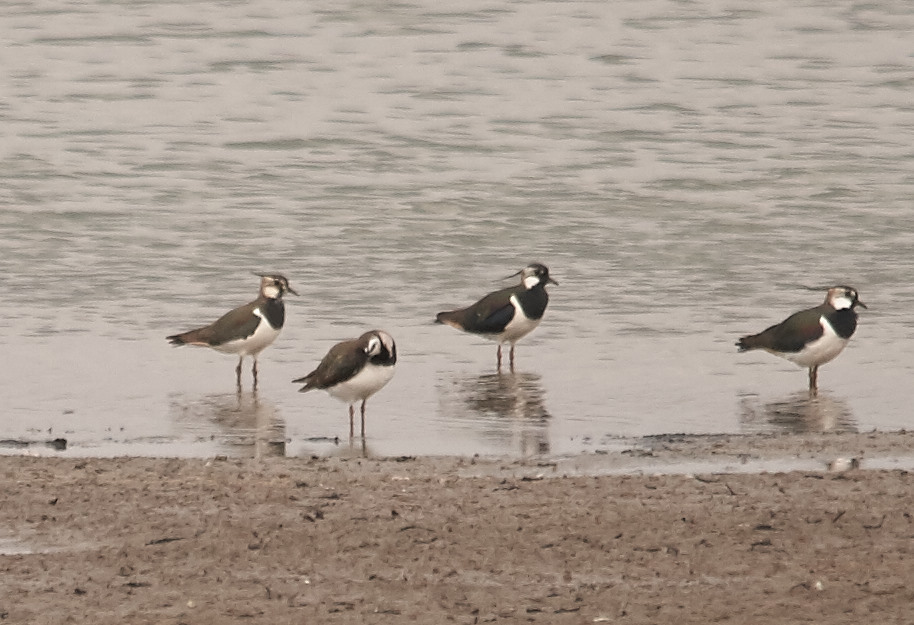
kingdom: Animalia
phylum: Chordata
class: Aves
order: Charadriiformes
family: Charadriidae
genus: Vanellus
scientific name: Vanellus vanellus
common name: Northern lapwing
